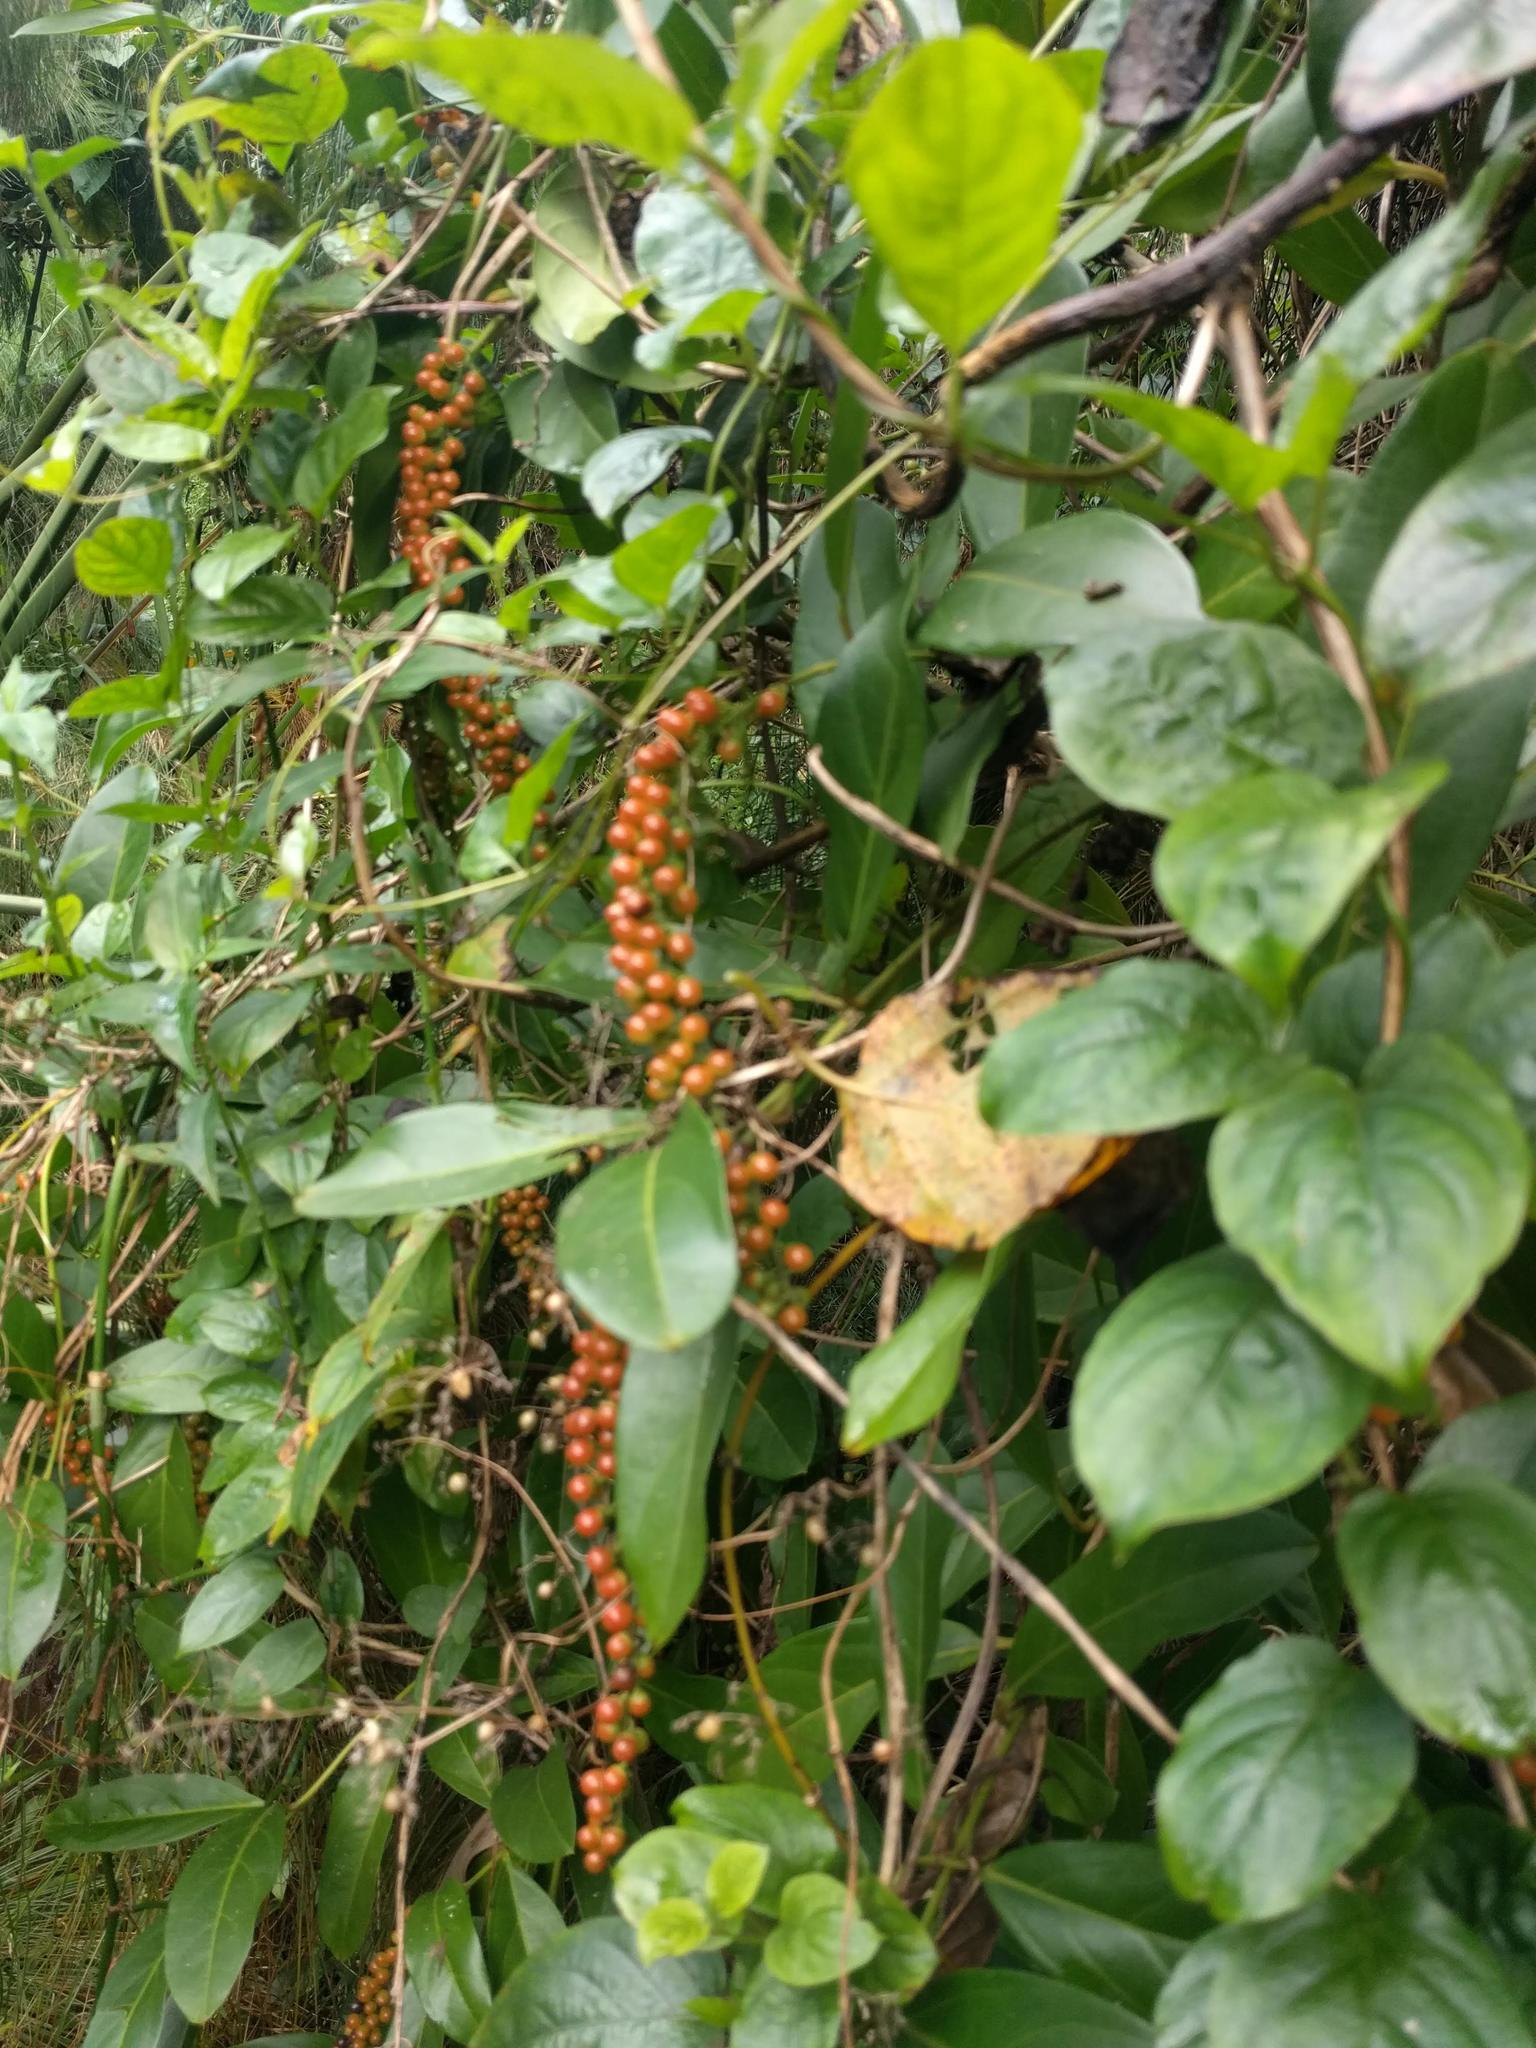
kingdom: Plantae
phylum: Tracheophyta
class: Magnoliopsida
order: Lamiales
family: Verbenaceae
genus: Citharexylum
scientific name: Citharexylum caudatum
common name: Fiddlewood
